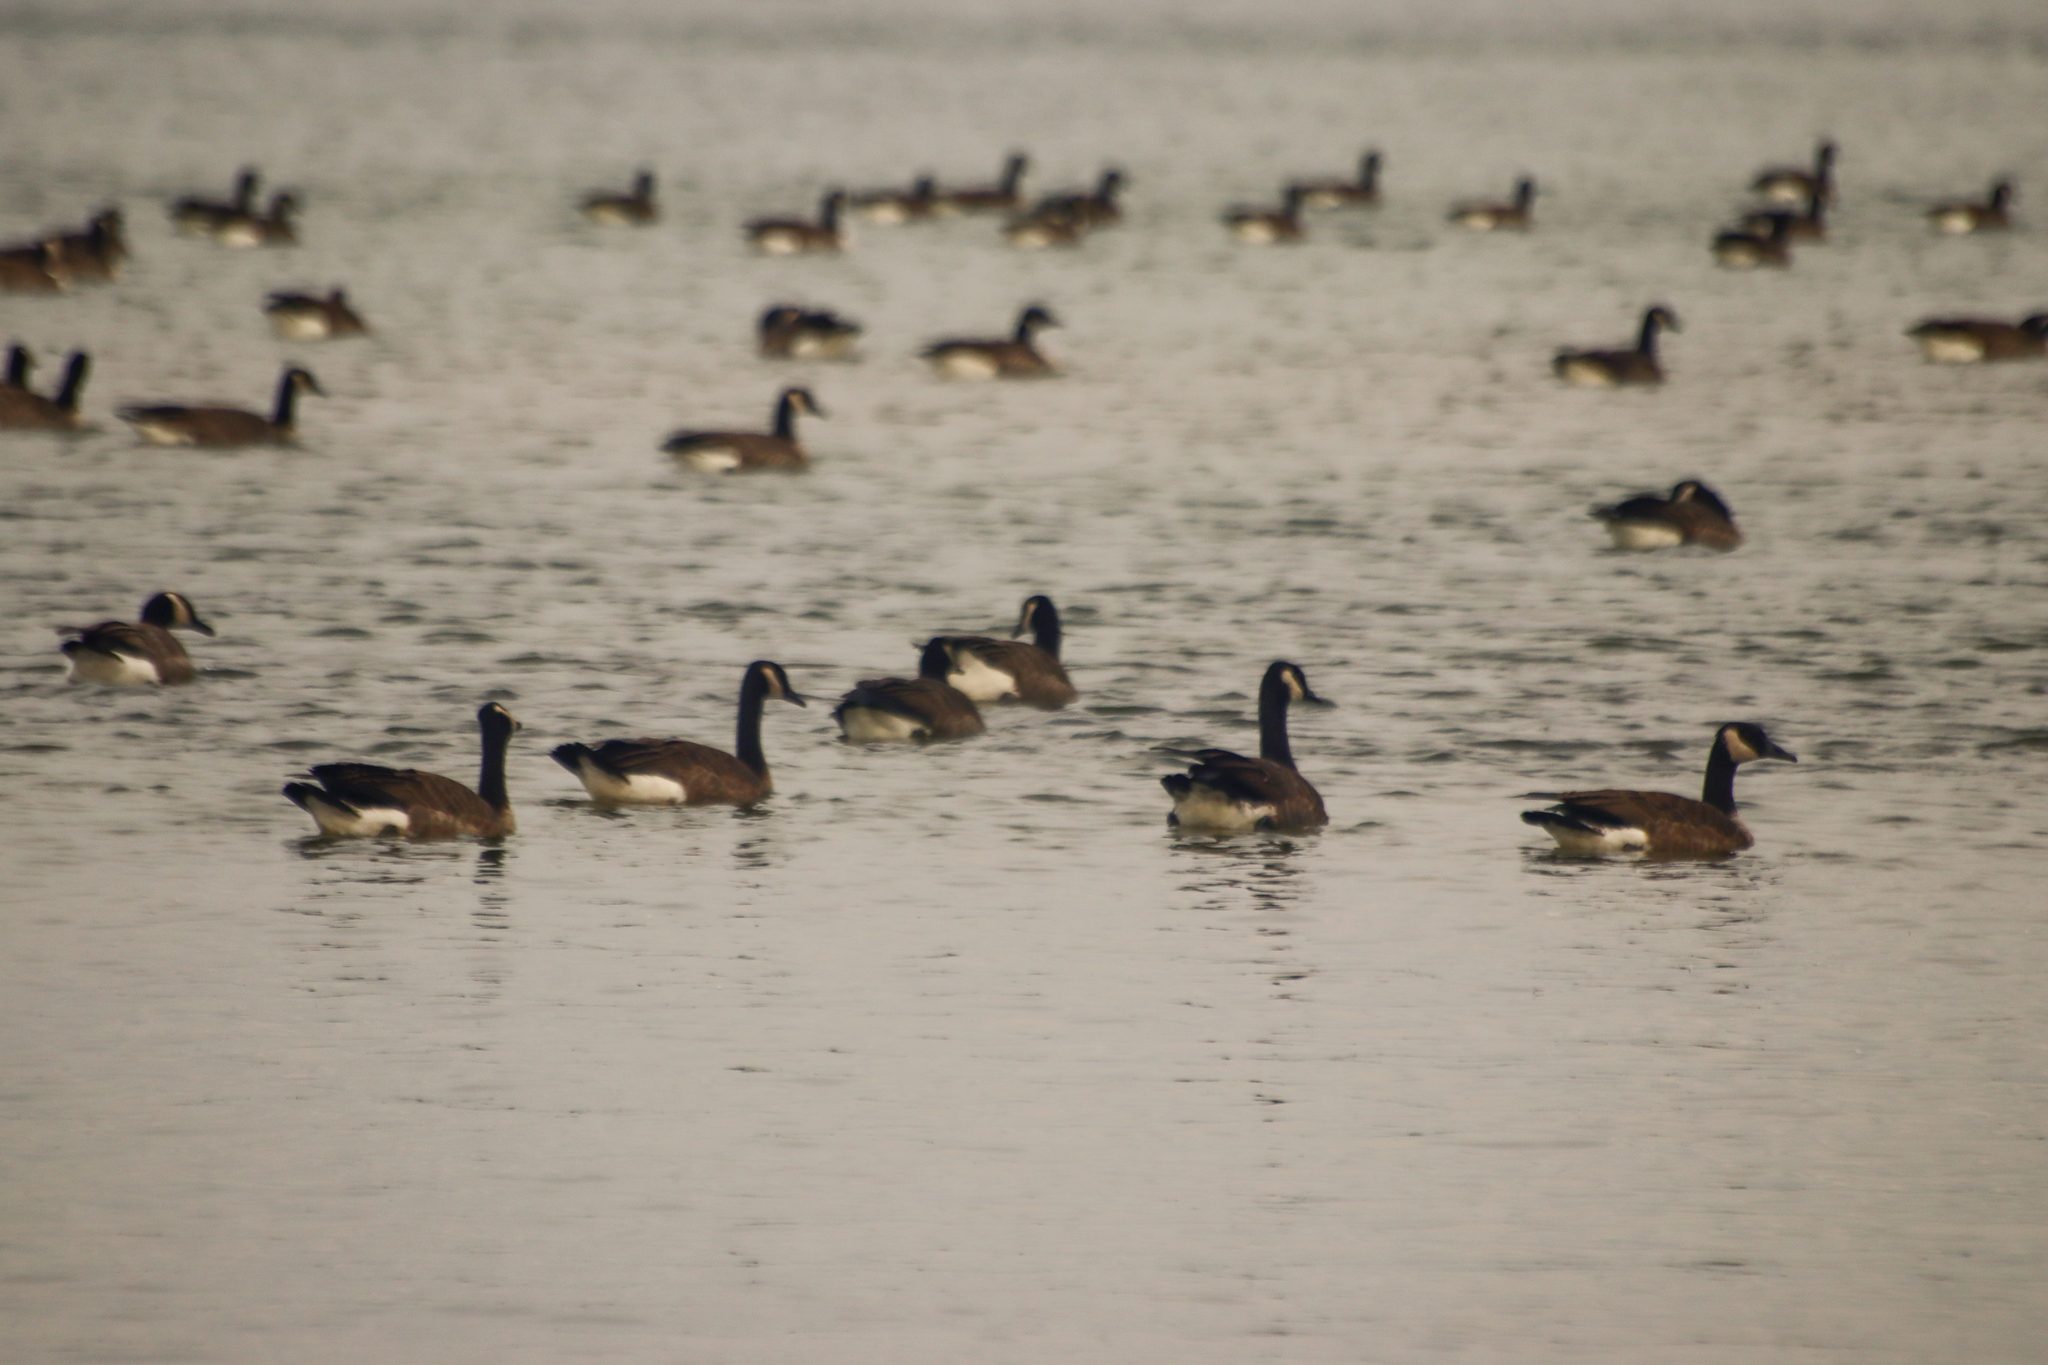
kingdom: Animalia
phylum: Chordata
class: Aves
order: Anseriformes
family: Anatidae
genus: Branta
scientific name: Branta canadensis
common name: Canada goose
